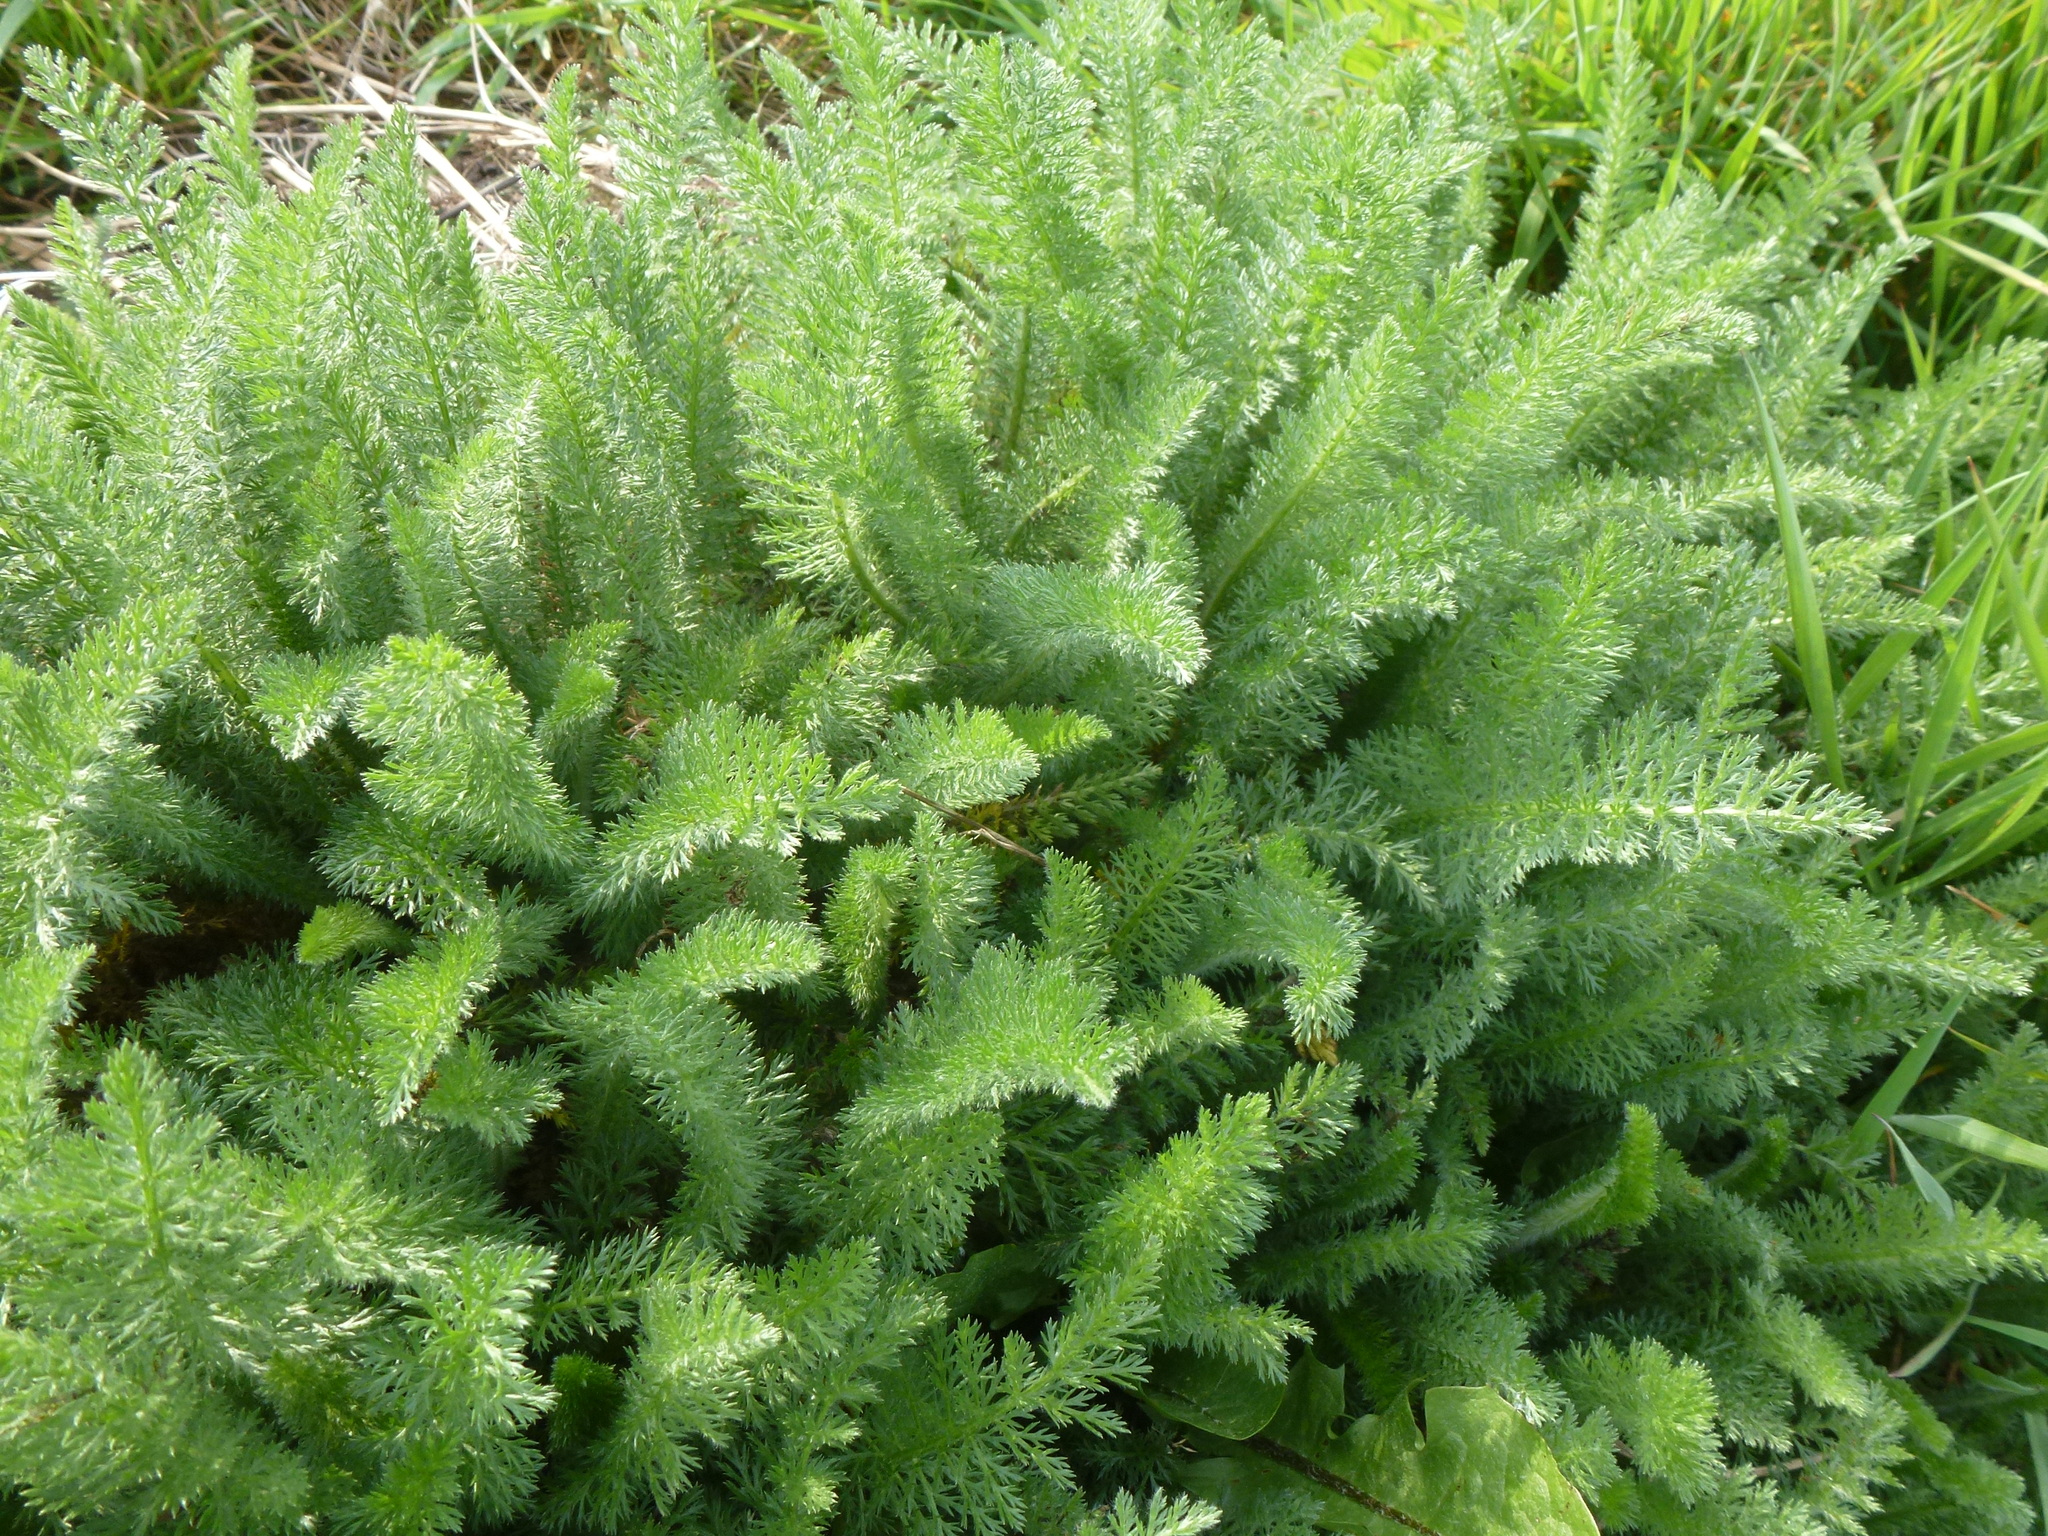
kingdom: Plantae
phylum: Tracheophyta
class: Magnoliopsida
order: Asterales
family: Asteraceae
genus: Achillea
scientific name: Achillea millefolium
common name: Yarrow
